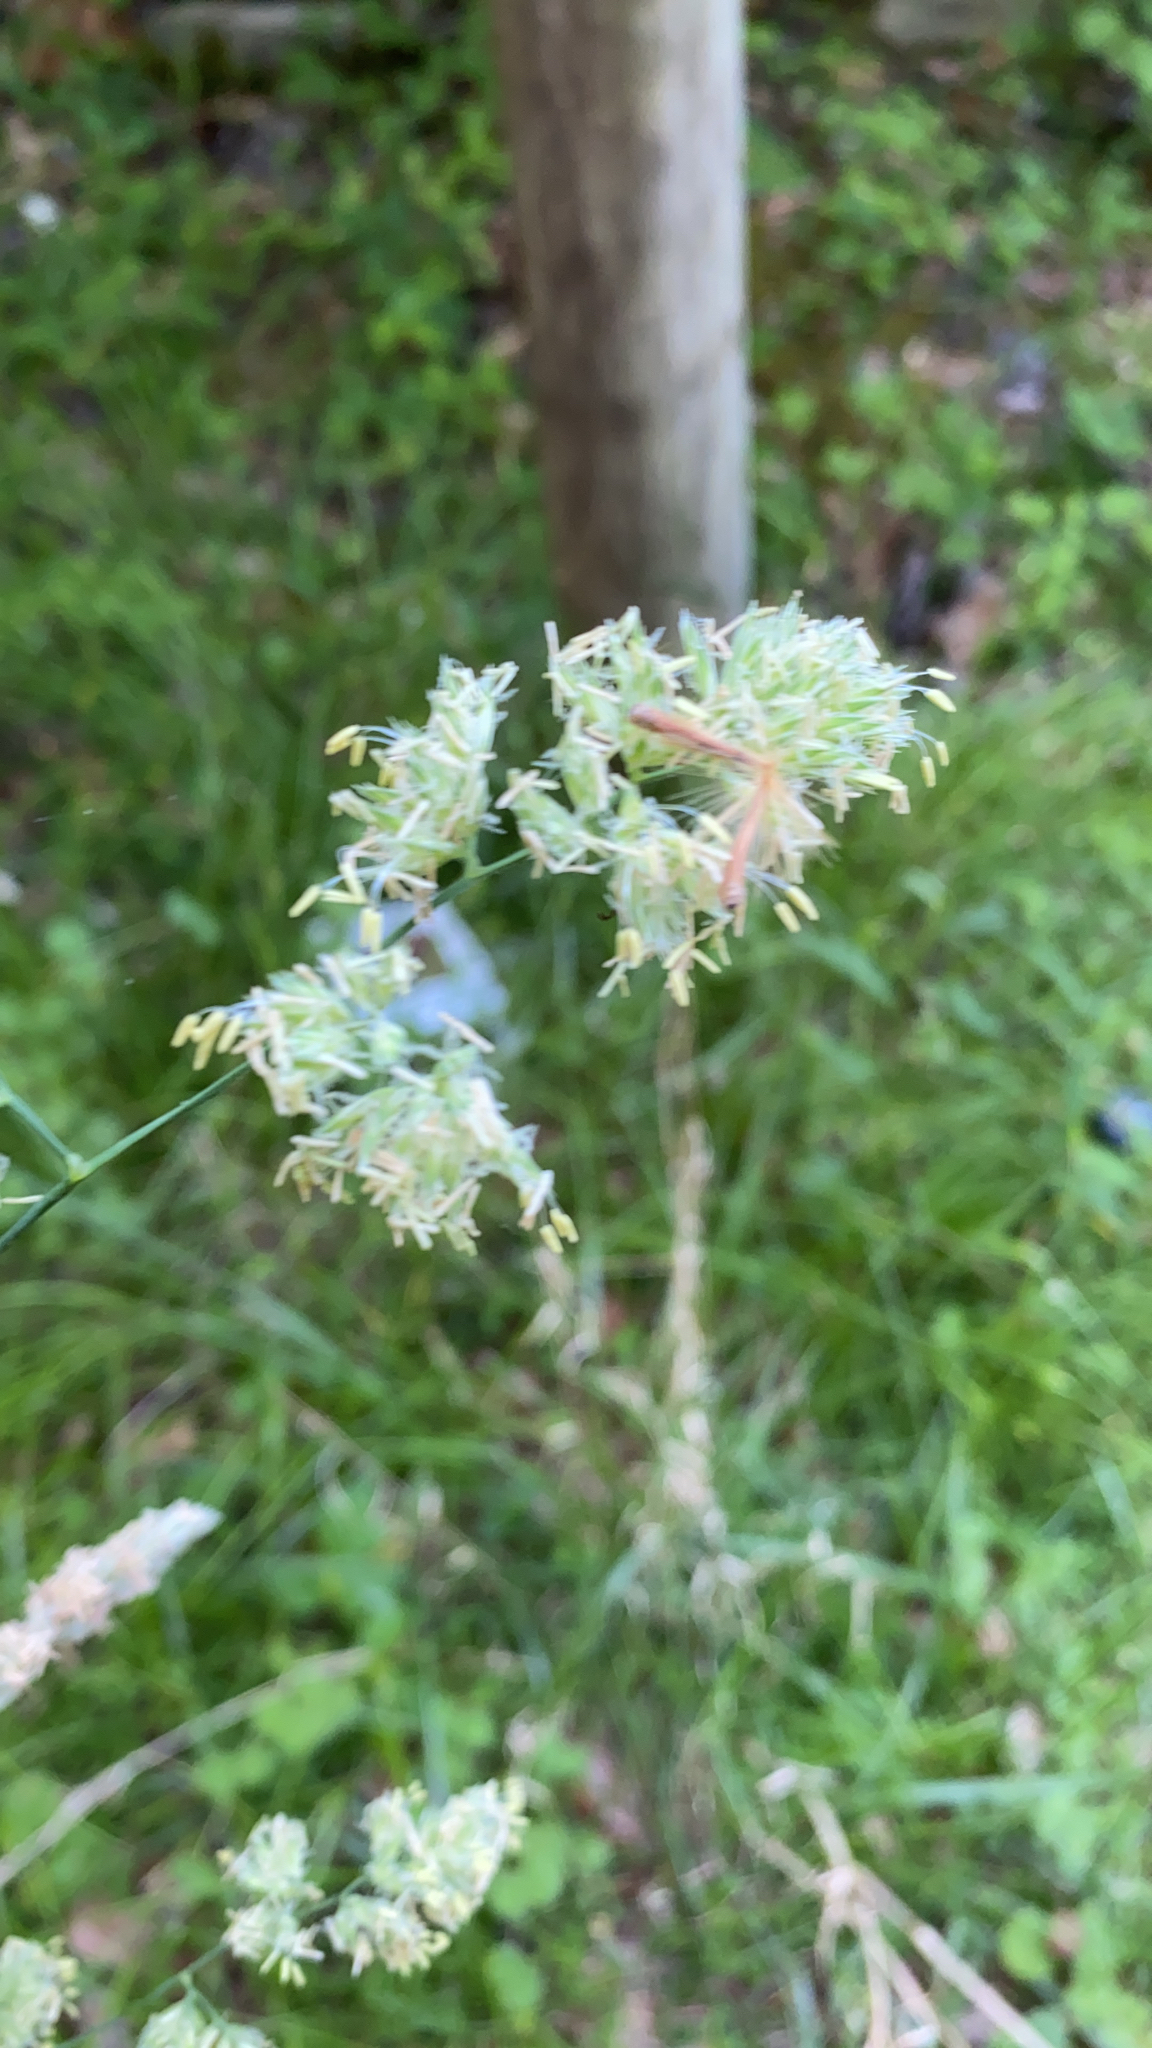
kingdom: Plantae
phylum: Tracheophyta
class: Liliopsida
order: Poales
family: Poaceae
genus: Dactylis
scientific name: Dactylis glomerata
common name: Orchardgrass
